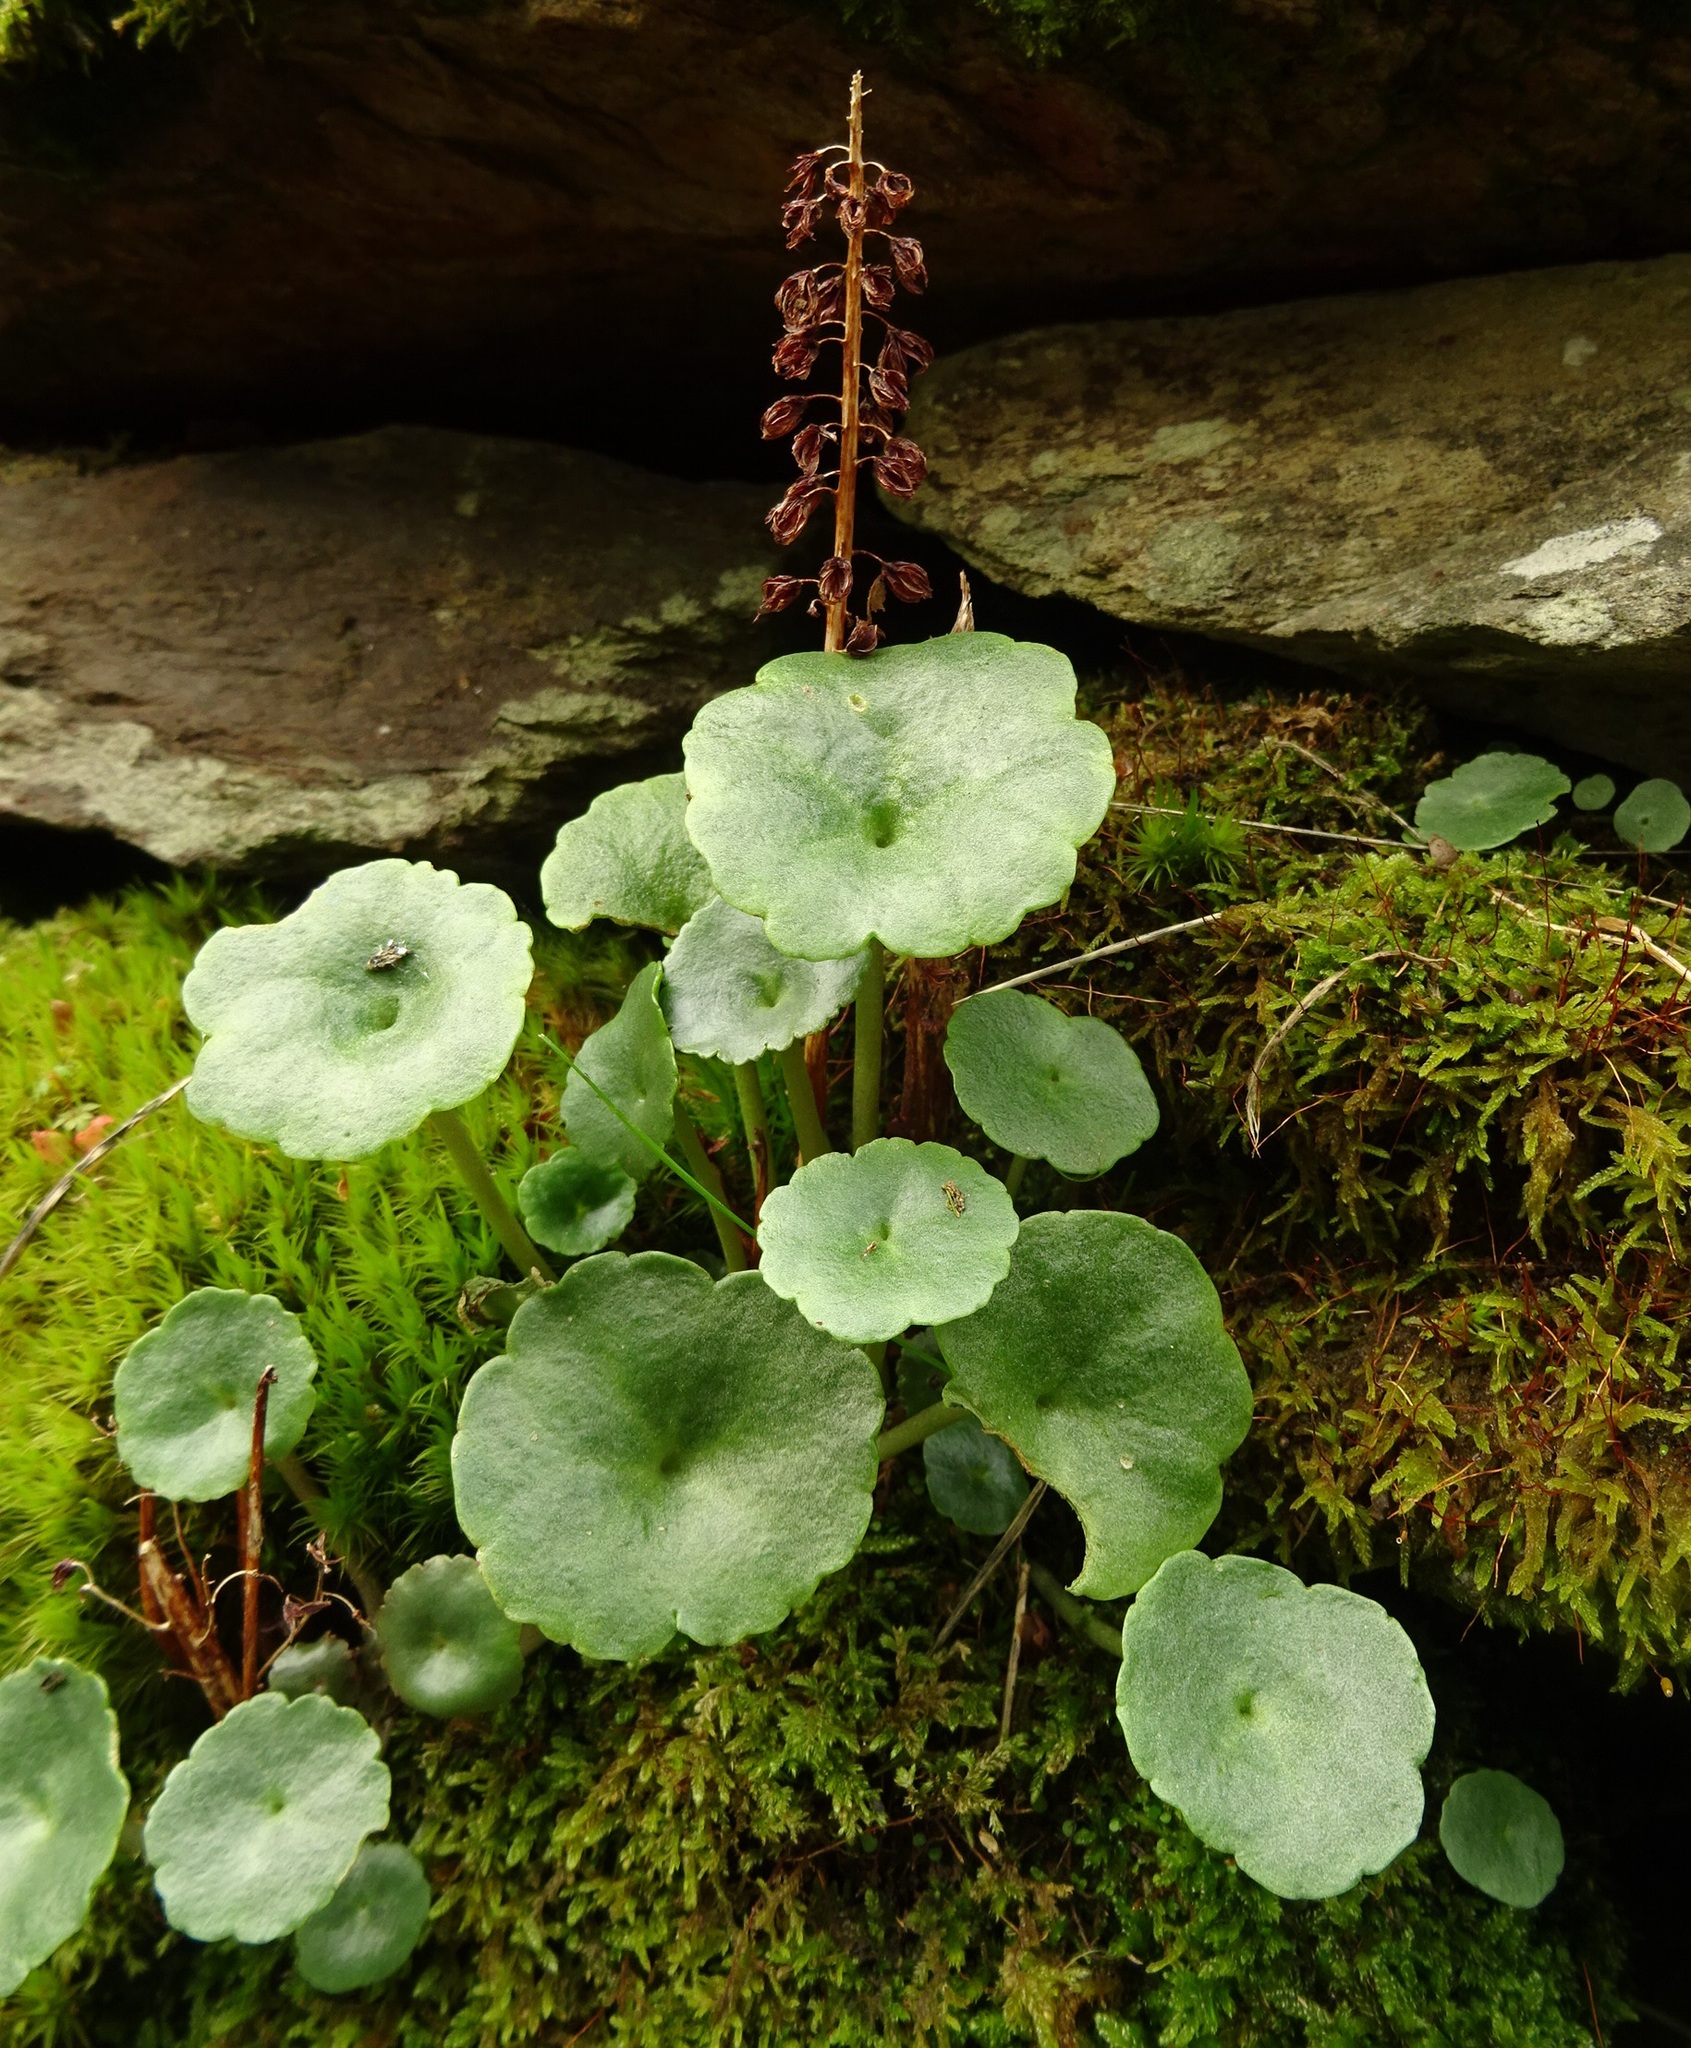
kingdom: Plantae
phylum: Tracheophyta
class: Magnoliopsida
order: Saxifragales
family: Crassulaceae
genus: Umbilicus
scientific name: Umbilicus rupestris
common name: Navelwort
